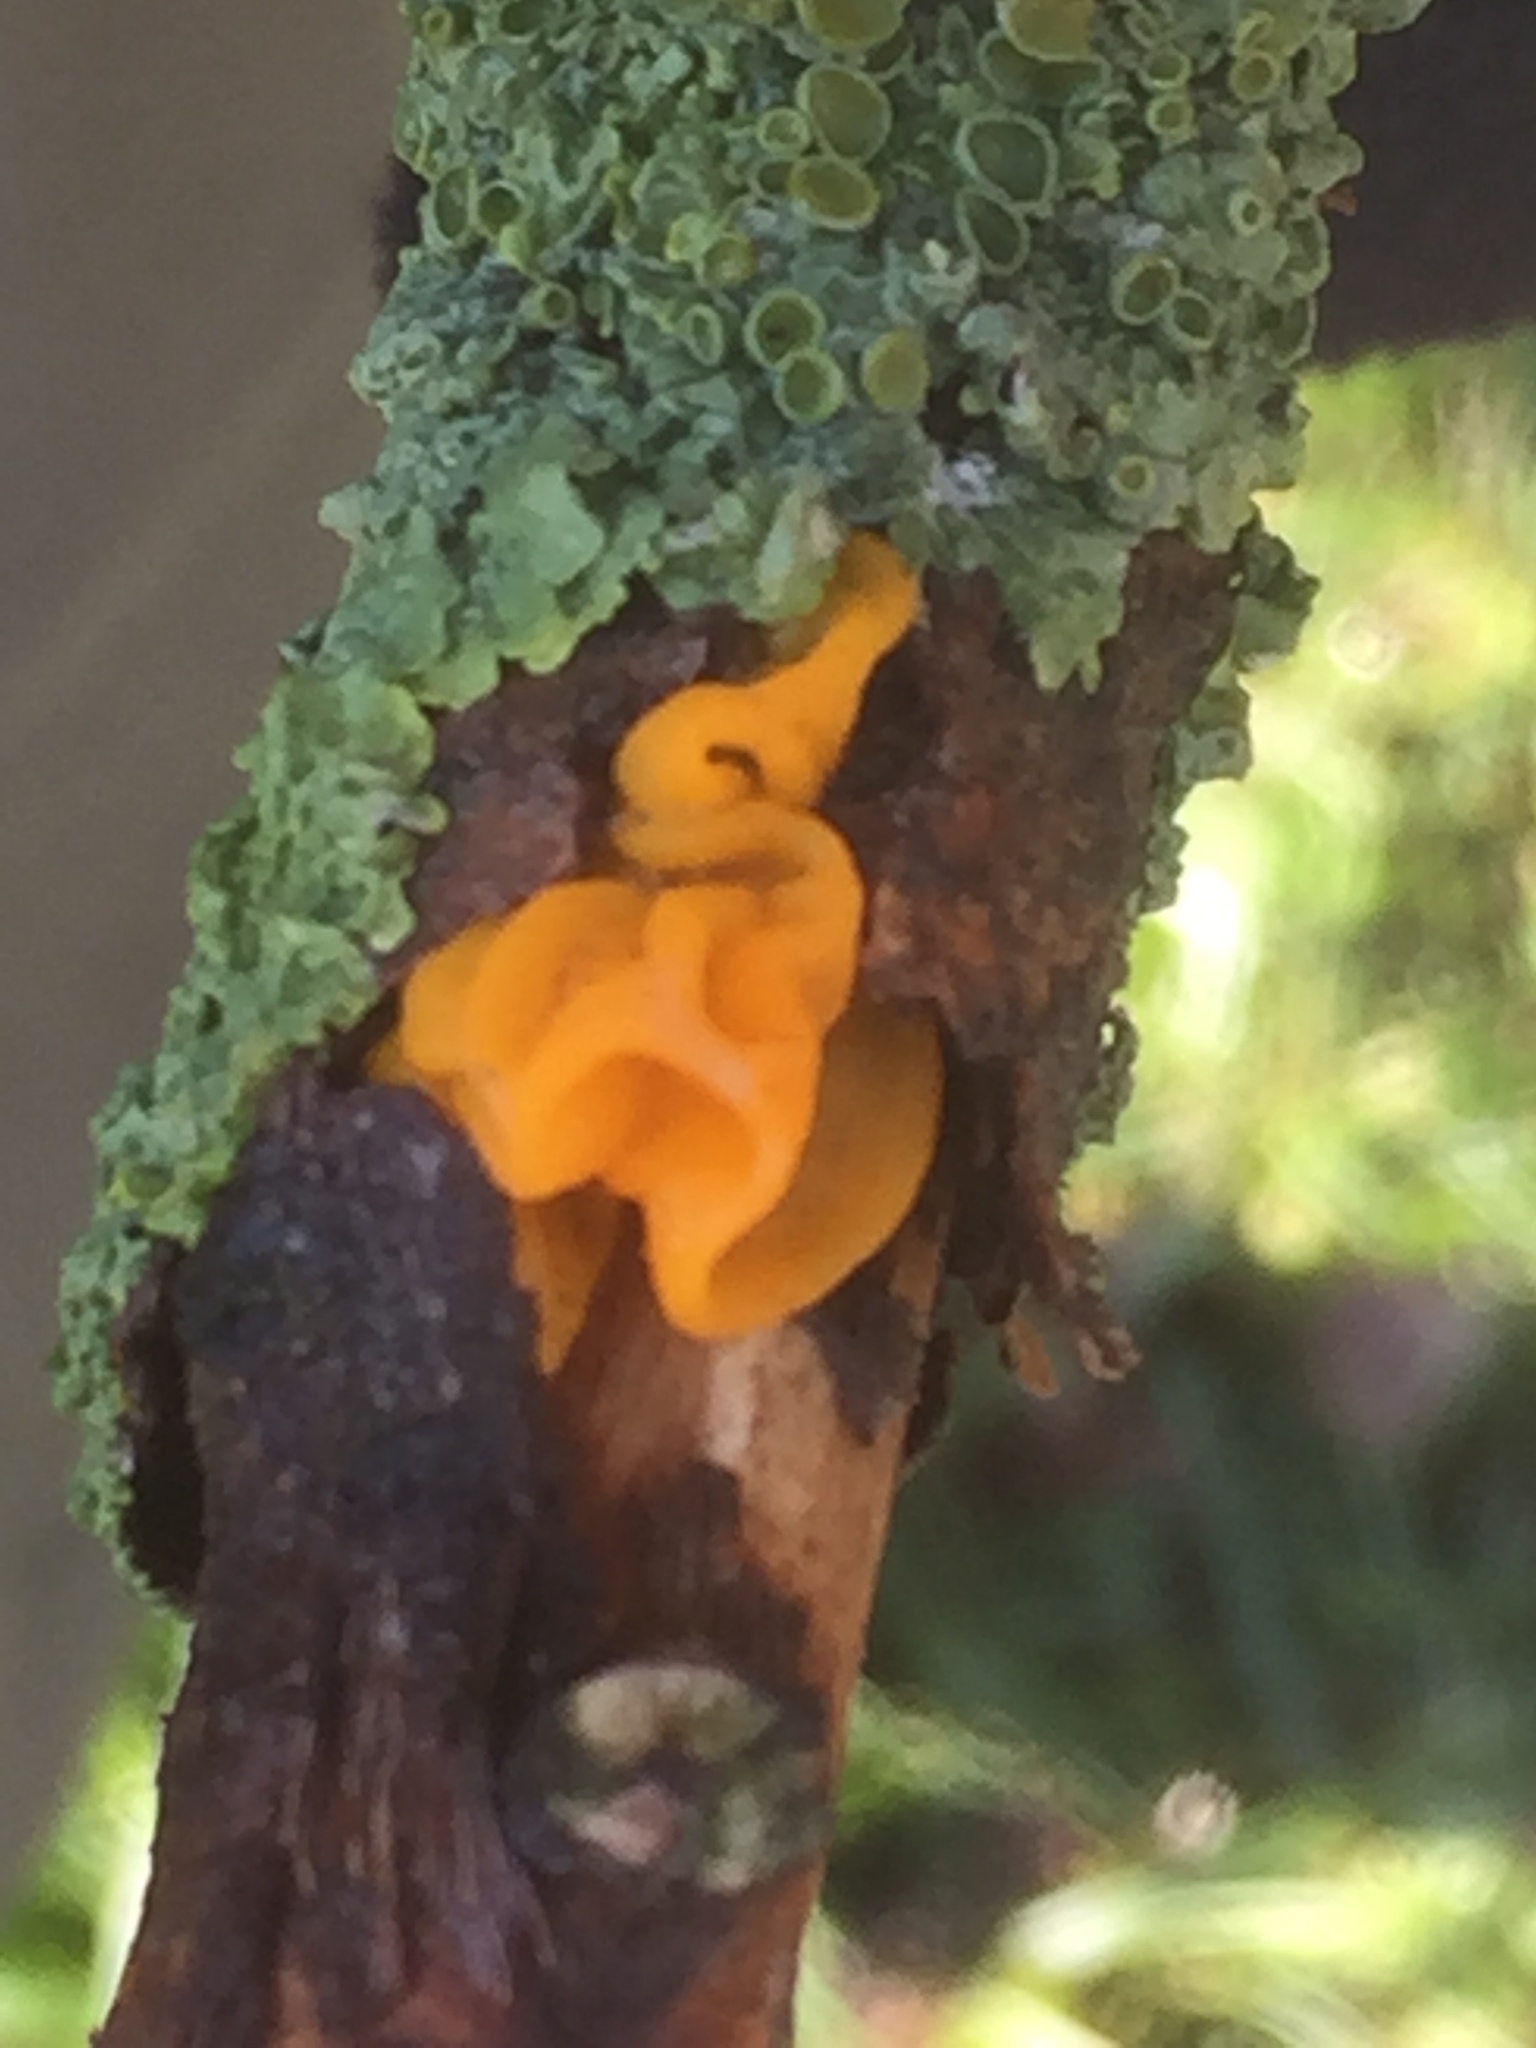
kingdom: Fungi
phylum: Basidiomycota
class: Tremellomycetes
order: Tremellales
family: Tremellaceae
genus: Tremella
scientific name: Tremella mesenterica
